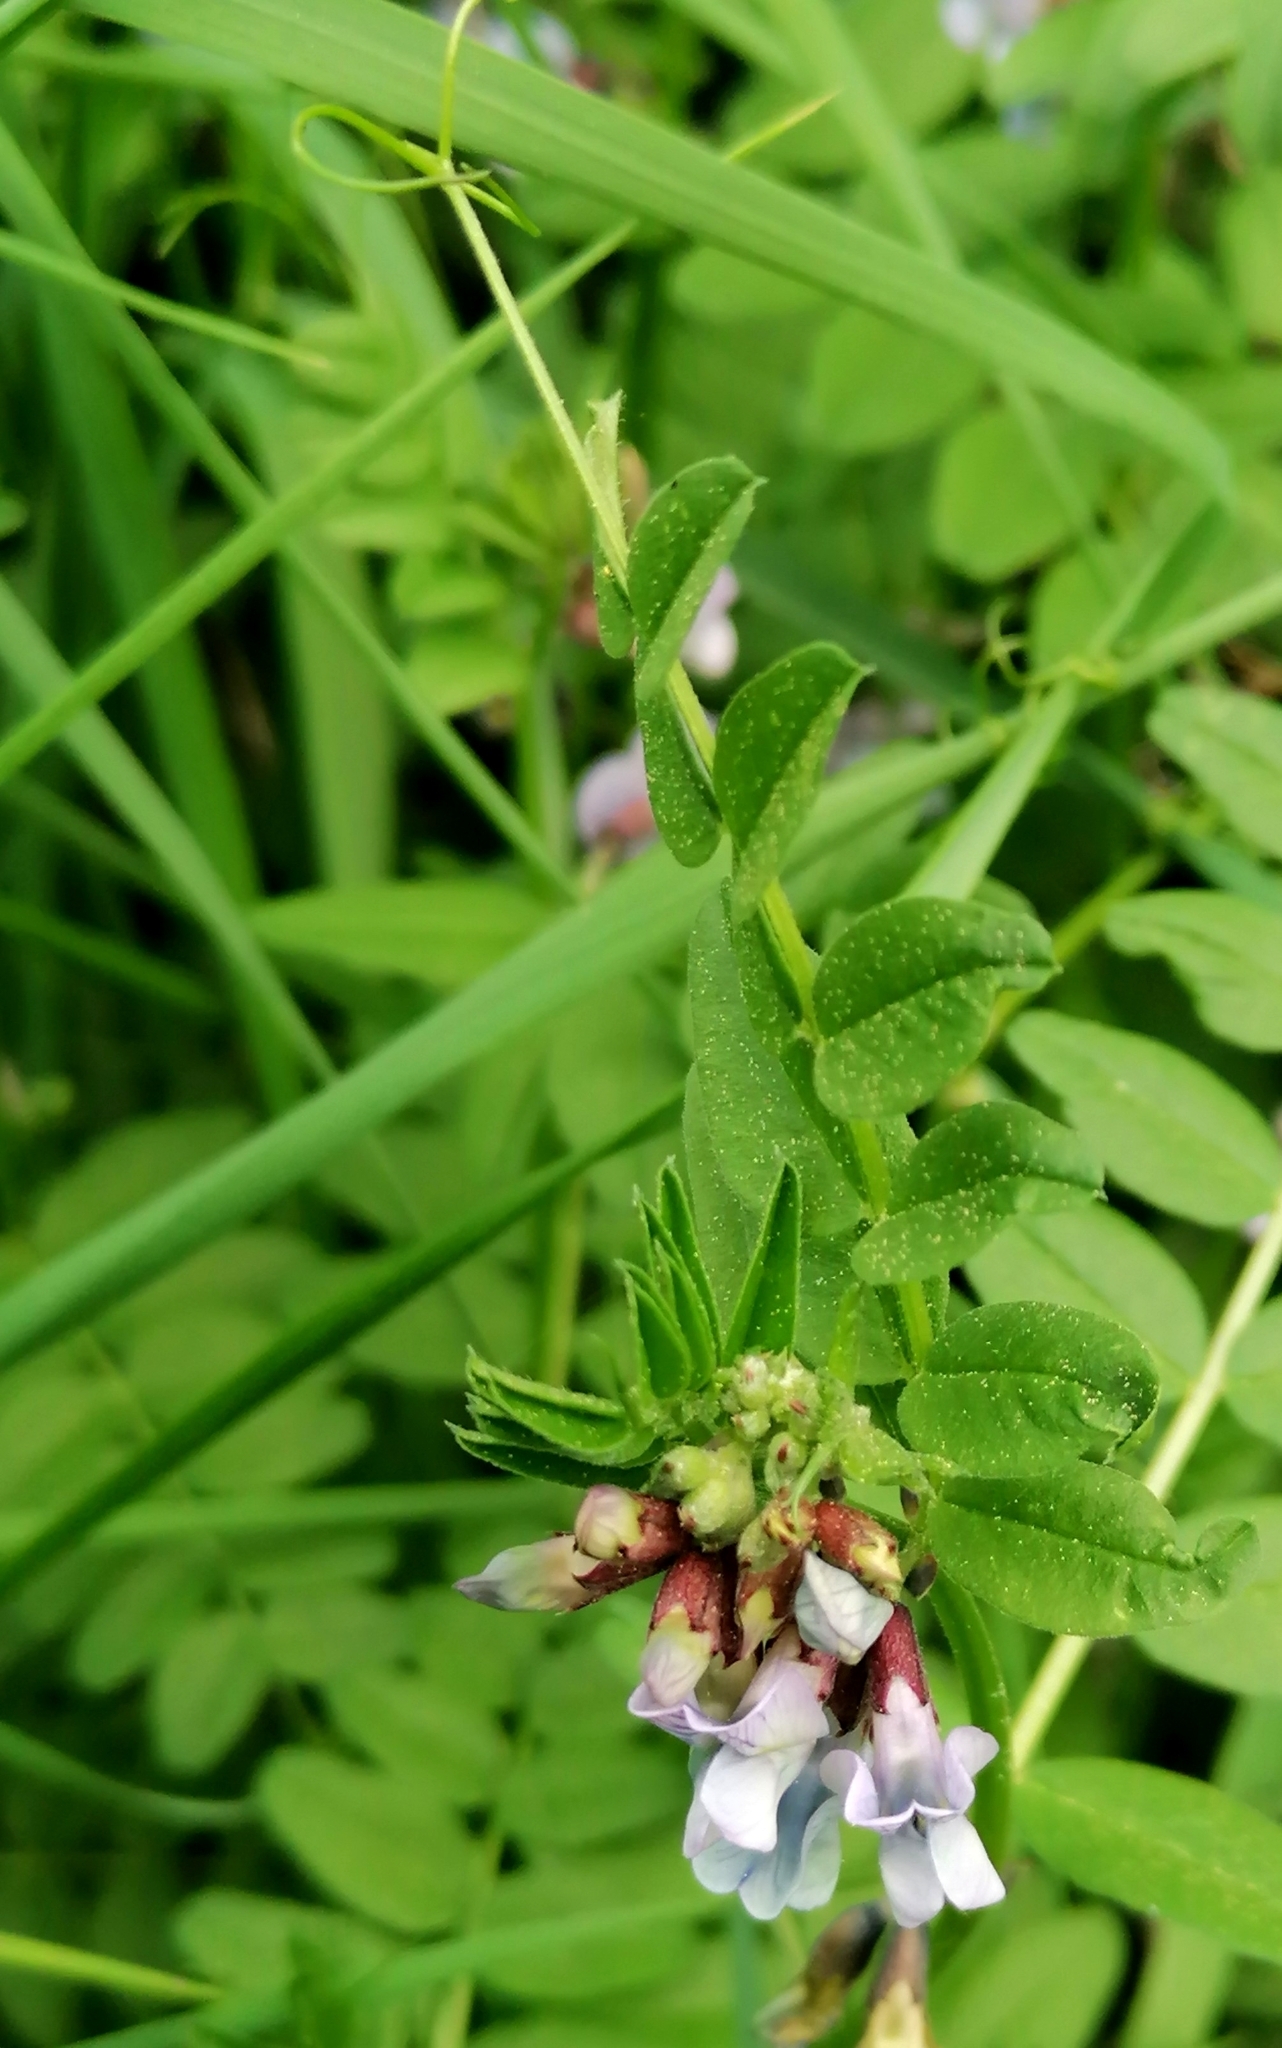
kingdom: Plantae
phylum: Tracheophyta
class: Magnoliopsida
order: Fabales
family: Fabaceae
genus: Vicia
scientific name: Vicia sepium
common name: Bush vetch
